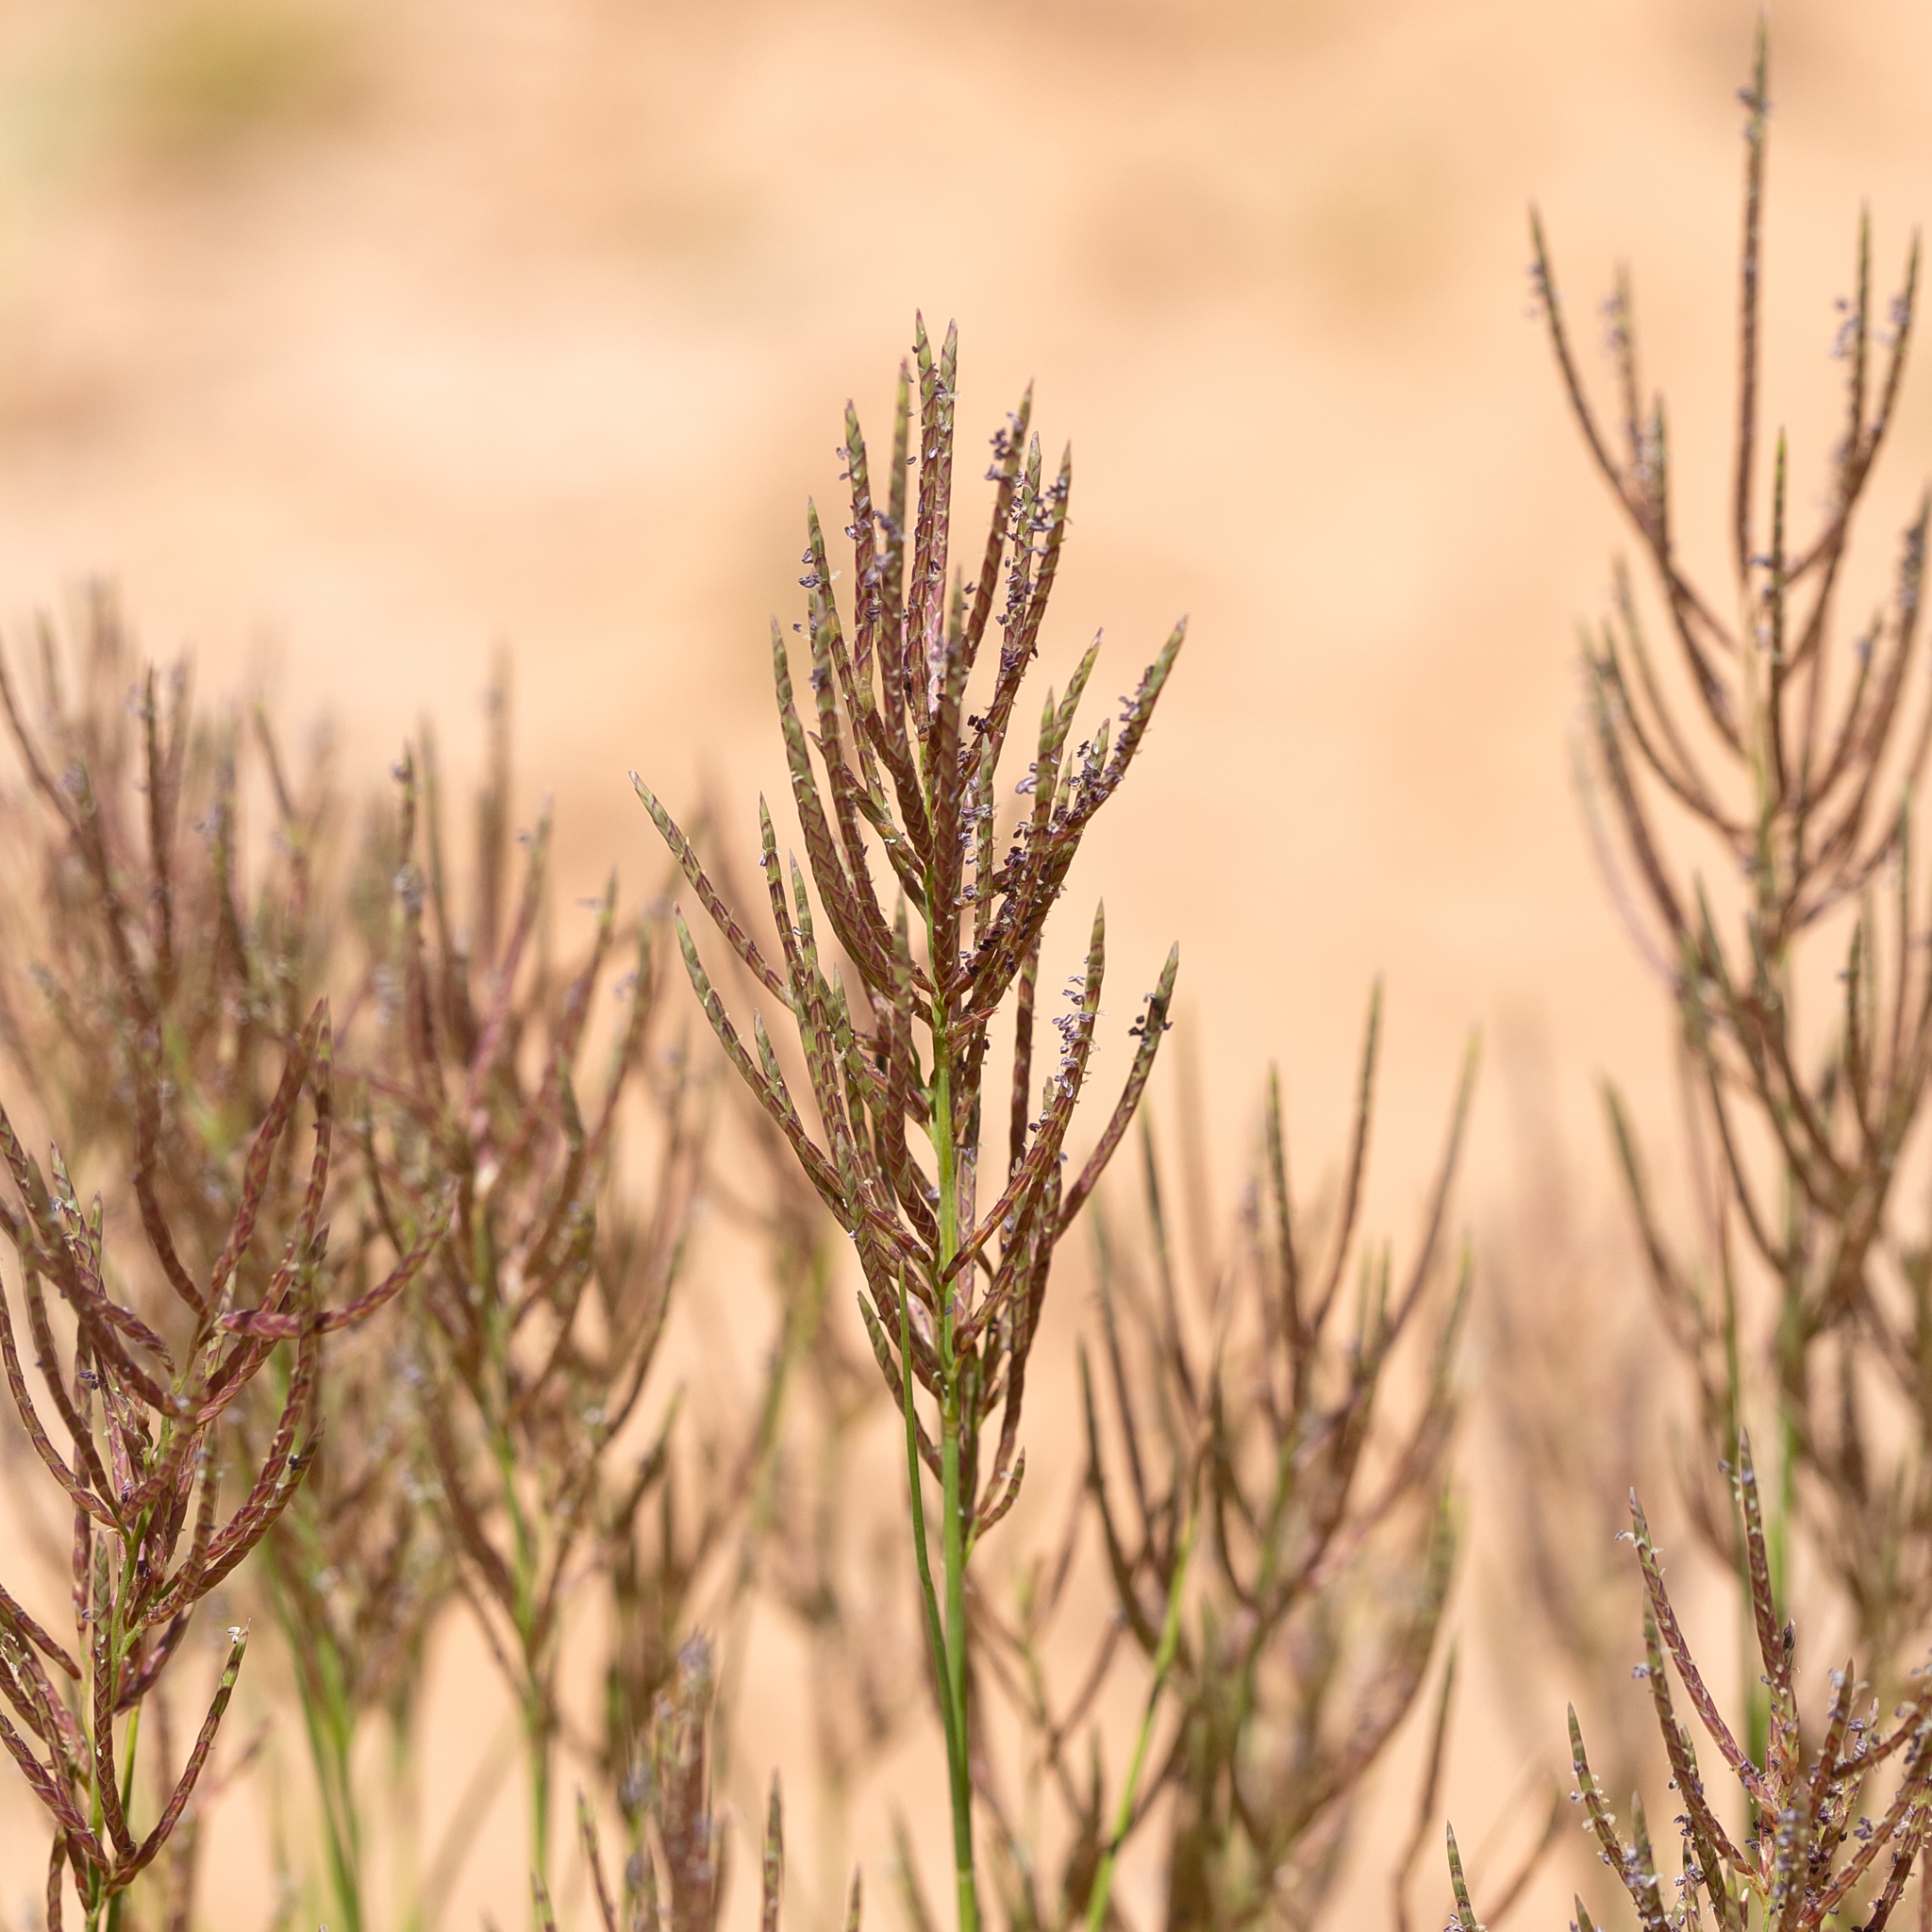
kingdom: Plantae
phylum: Tracheophyta
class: Liliopsida
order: Poales
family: Poaceae
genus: Eragrostis
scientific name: Eragrostis pergracilis
